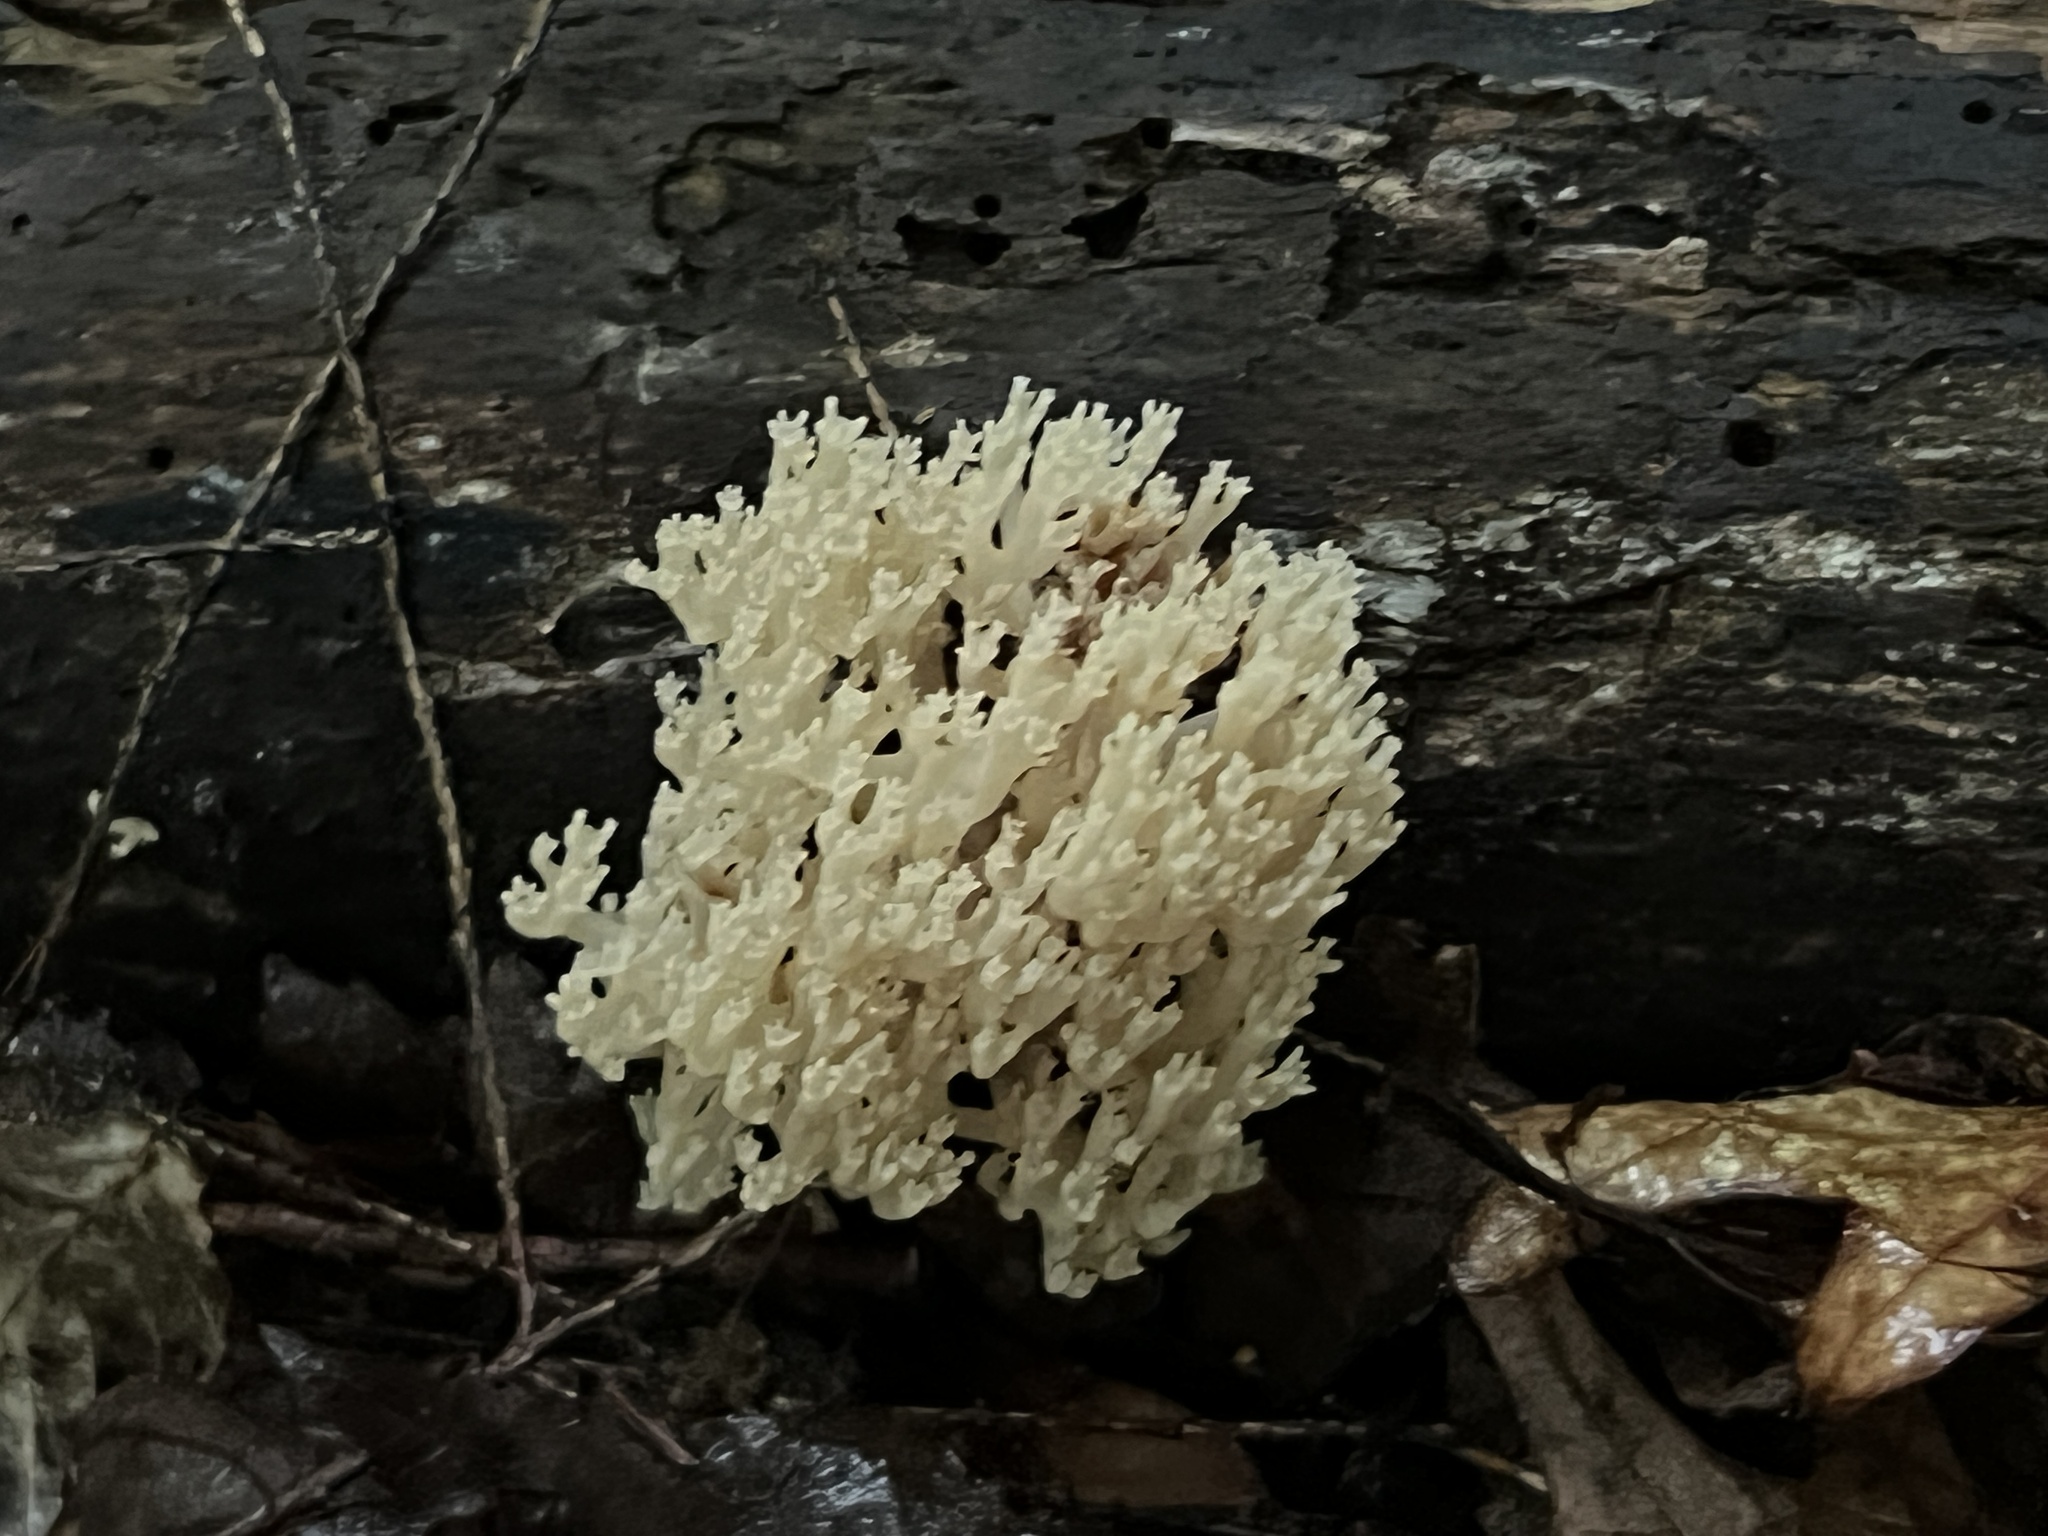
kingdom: Fungi
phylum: Basidiomycota
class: Agaricomycetes
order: Russulales
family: Auriscalpiaceae
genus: Artomyces
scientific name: Artomyces pyxidatus
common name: Crown-tipped coral fungus
